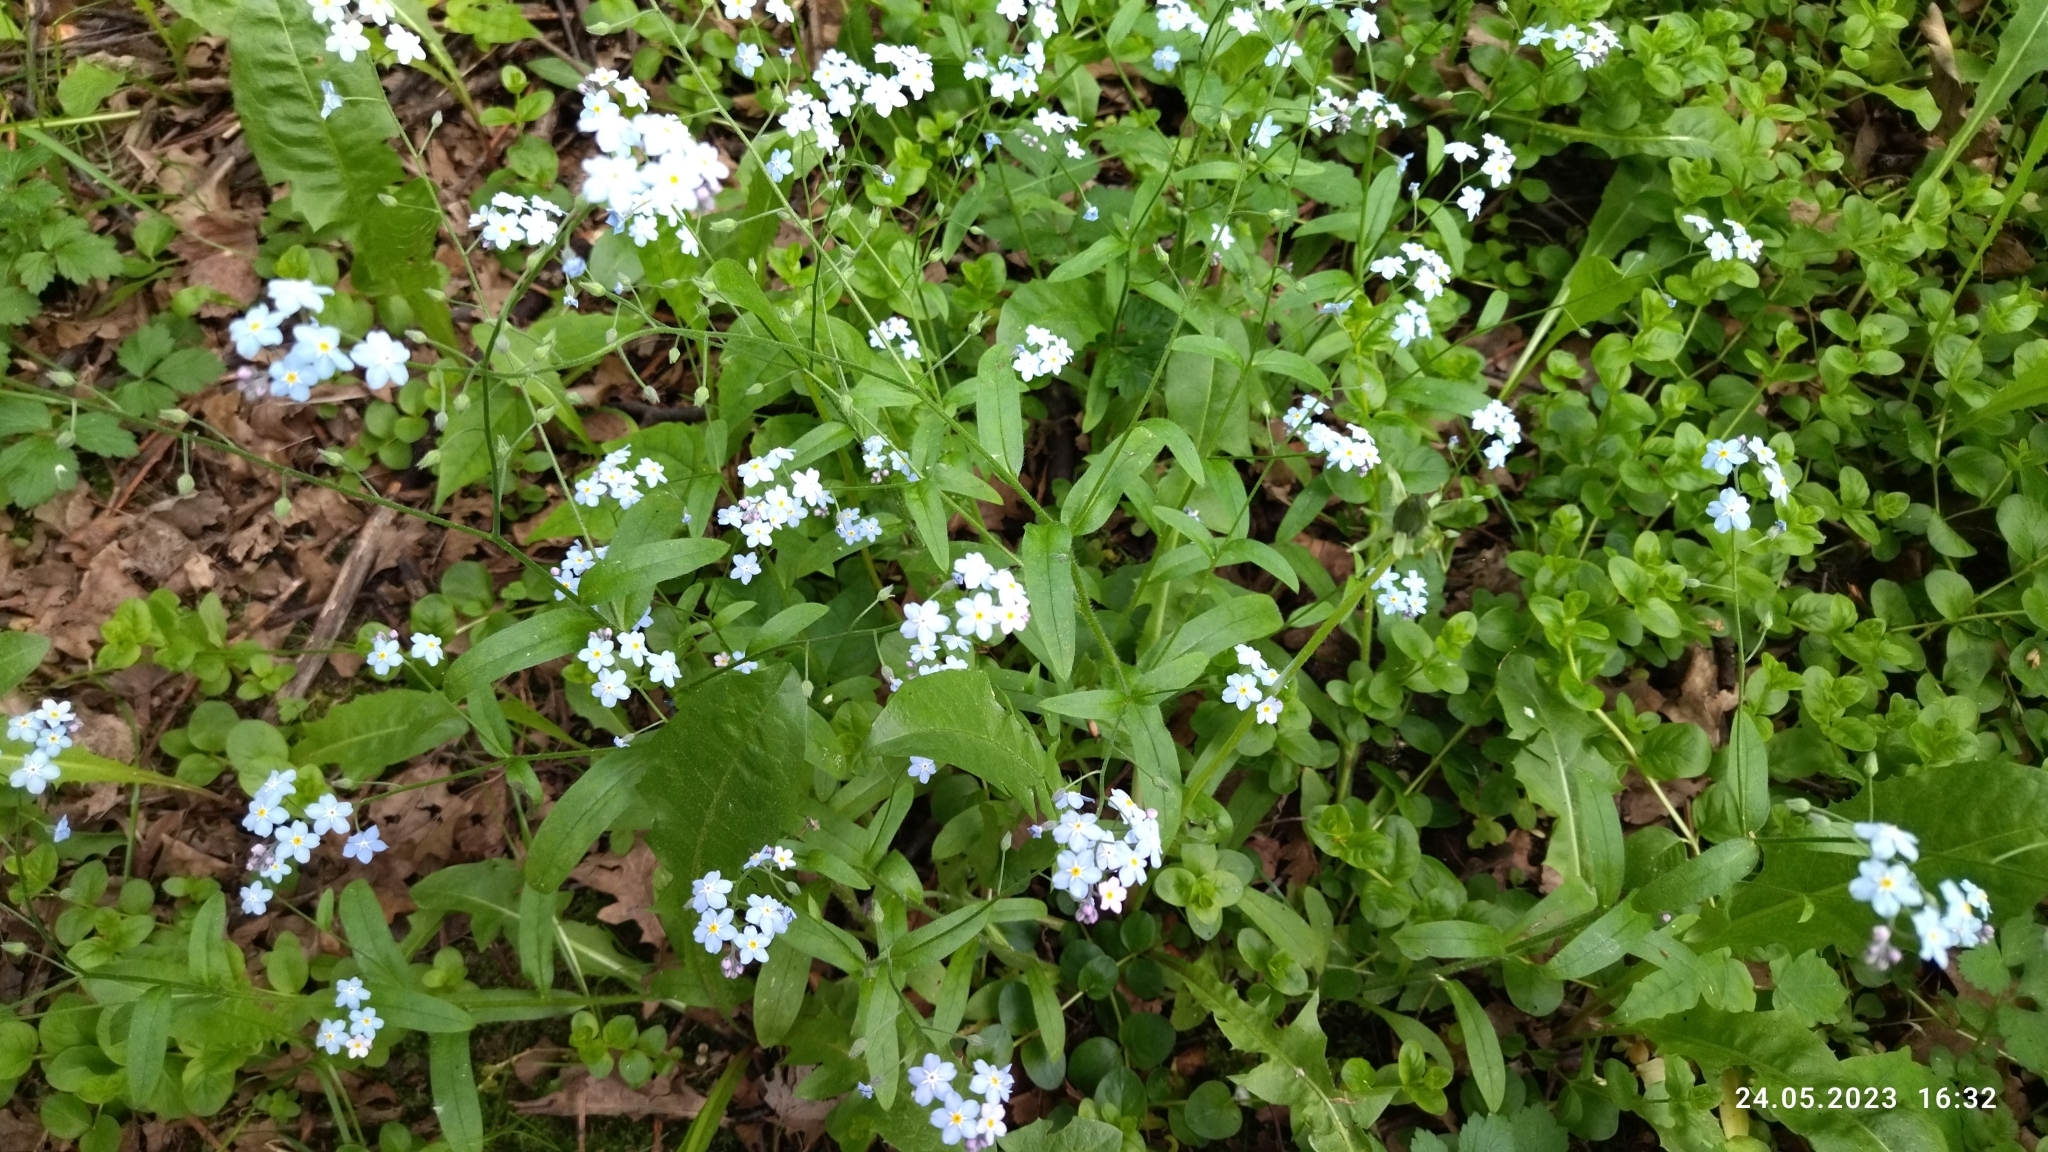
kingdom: Plantae
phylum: Tracheophyta
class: Magnoliopsida
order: Boraginales
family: Boraginaceae
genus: Myosotis
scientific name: Myosotis sylvatica
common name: Wood forget-me-not
